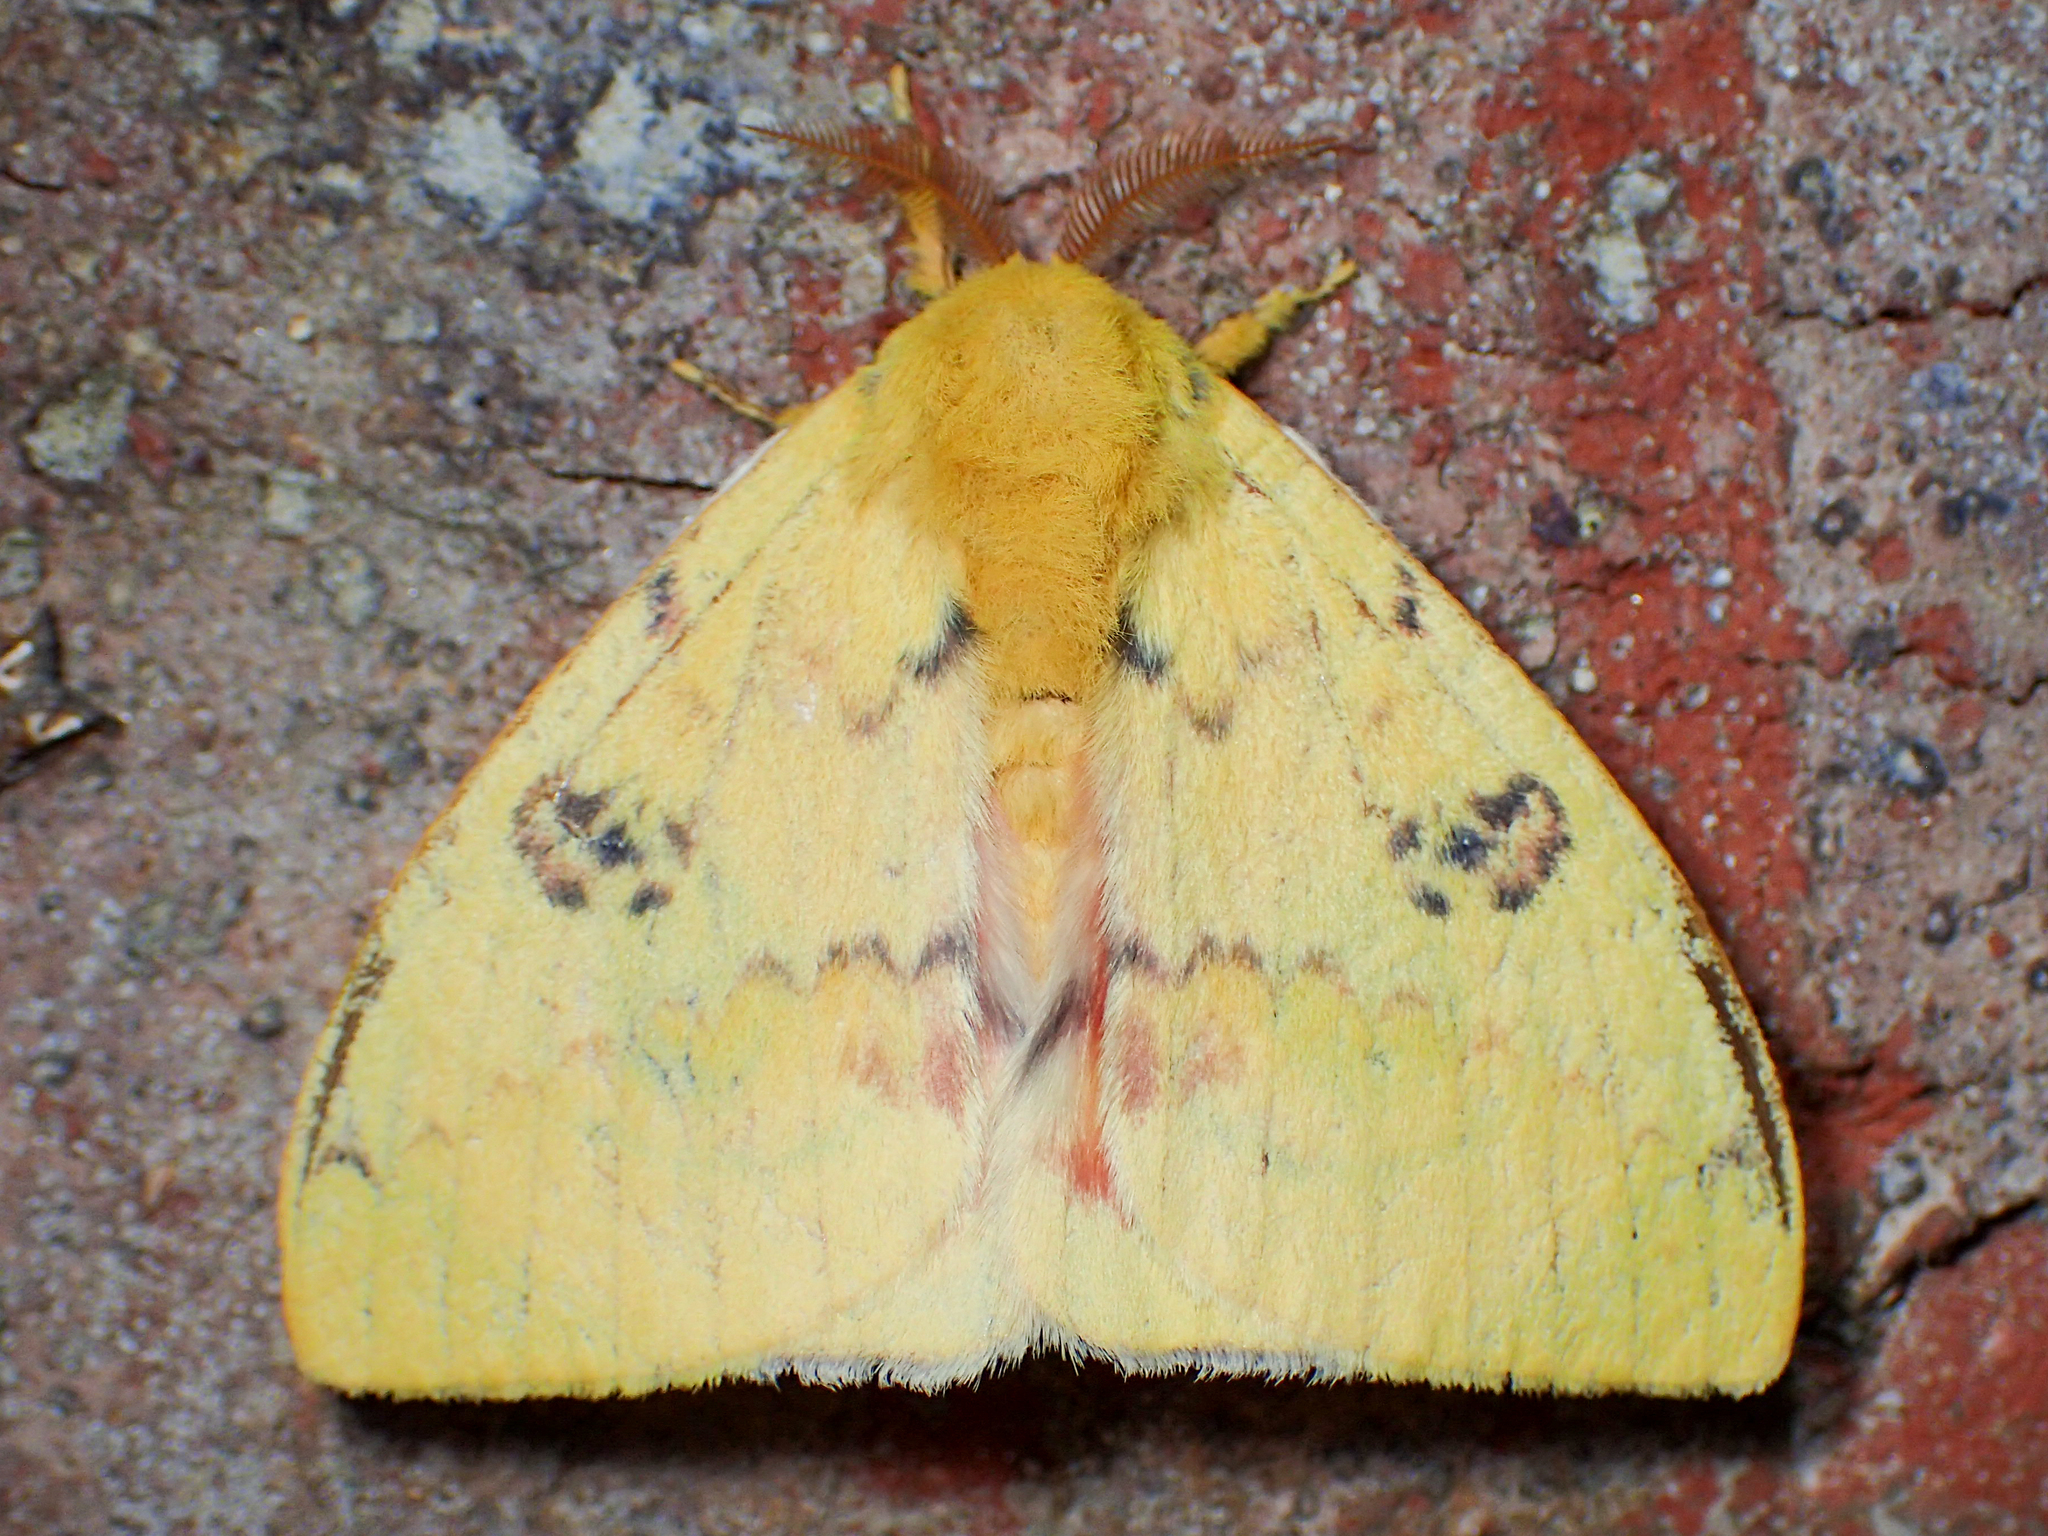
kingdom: Animalia
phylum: Arthropoda
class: Insecta
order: Lepidoptera
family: Saturniidae
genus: Automeris
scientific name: Automeris io
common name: Io moth
